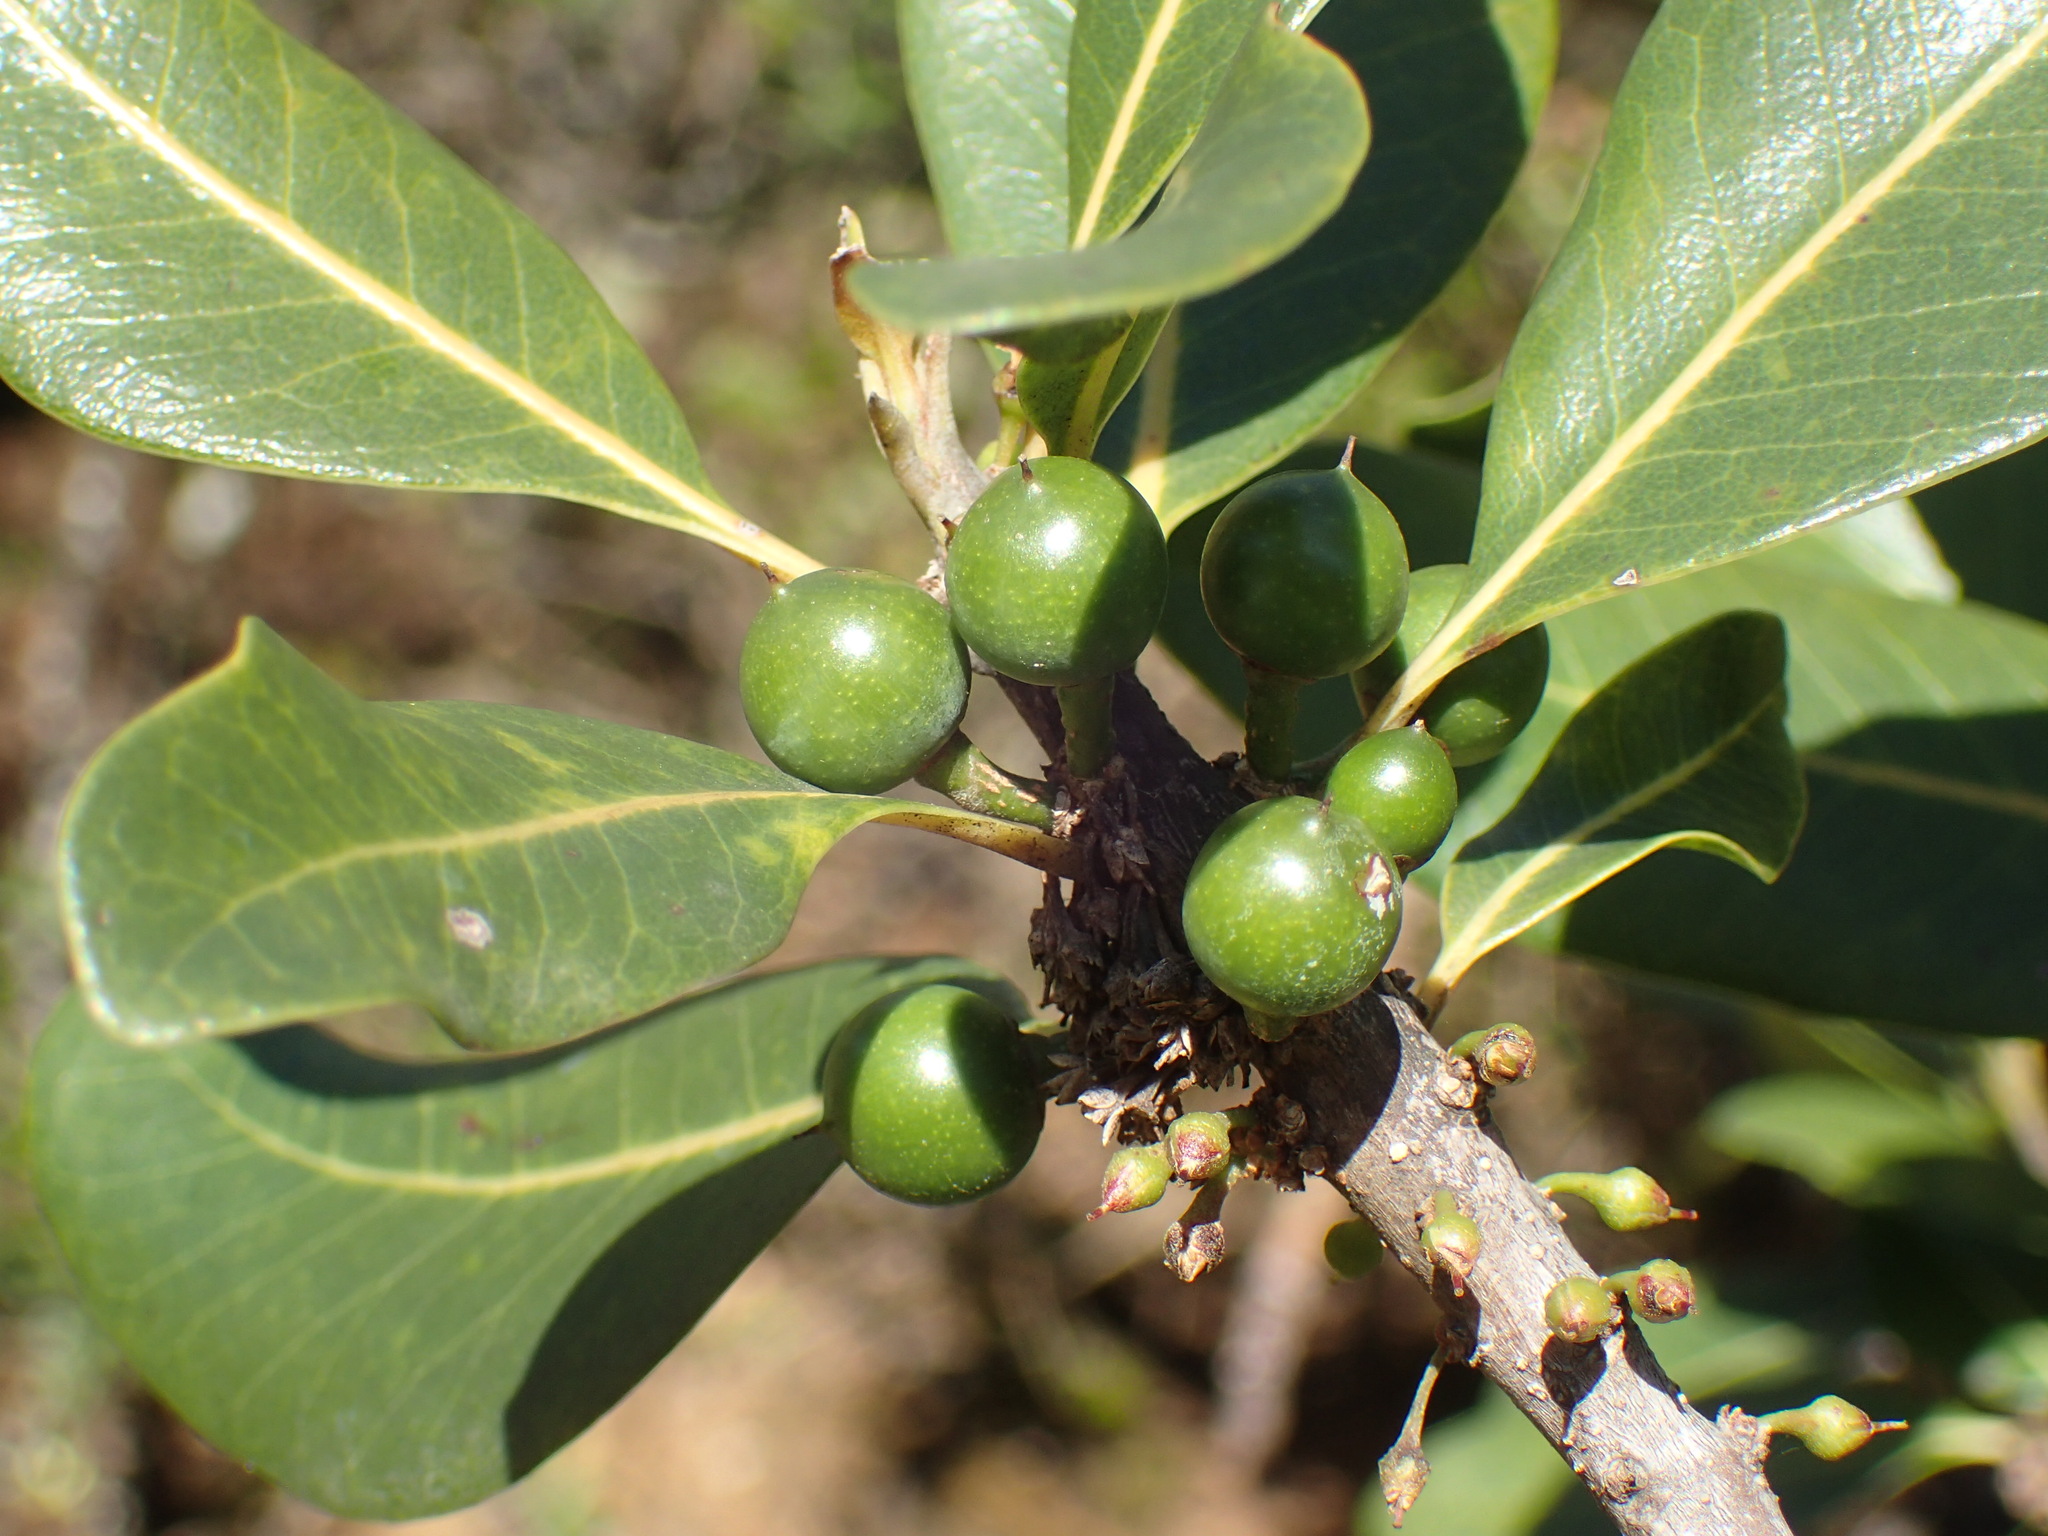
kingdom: Plantae
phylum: Tracheophyta
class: Magnoliopsida
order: Ericales
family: Sapotaceae
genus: Sideroxylon
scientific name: Sideroxylon inerme
